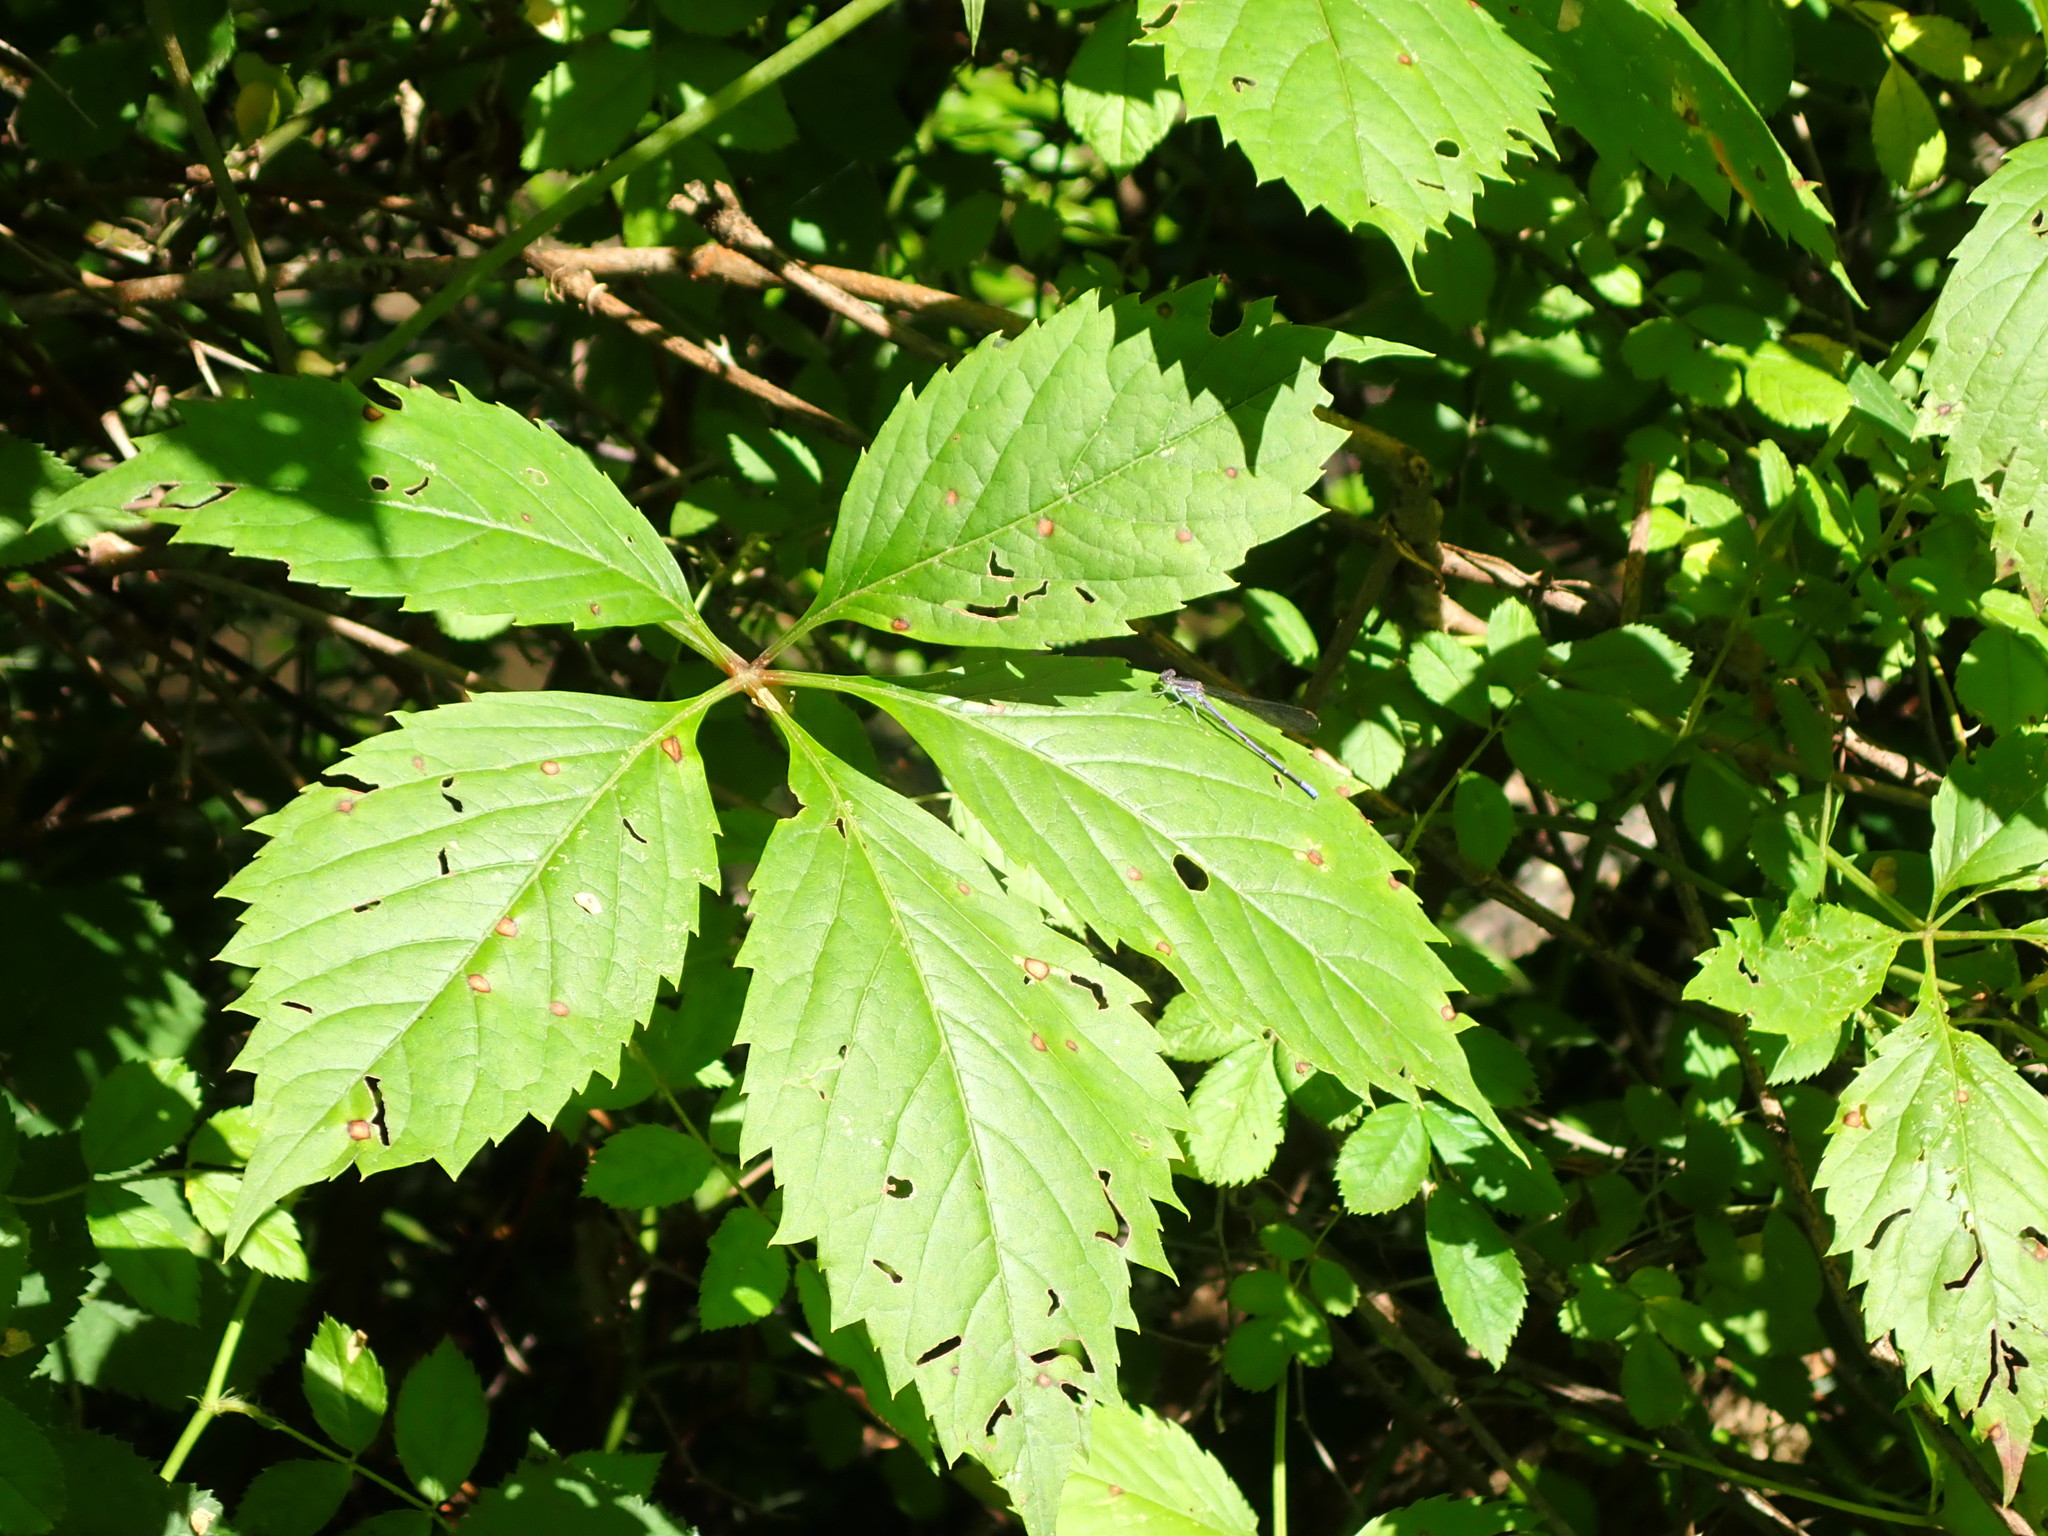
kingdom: Plantae
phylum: Tracheophyta
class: Magnoliopsida
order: Vitales
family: Vitaceae
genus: Parthenocissus
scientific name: Parthenocissus quinquefolia
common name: Virginia-creeper
